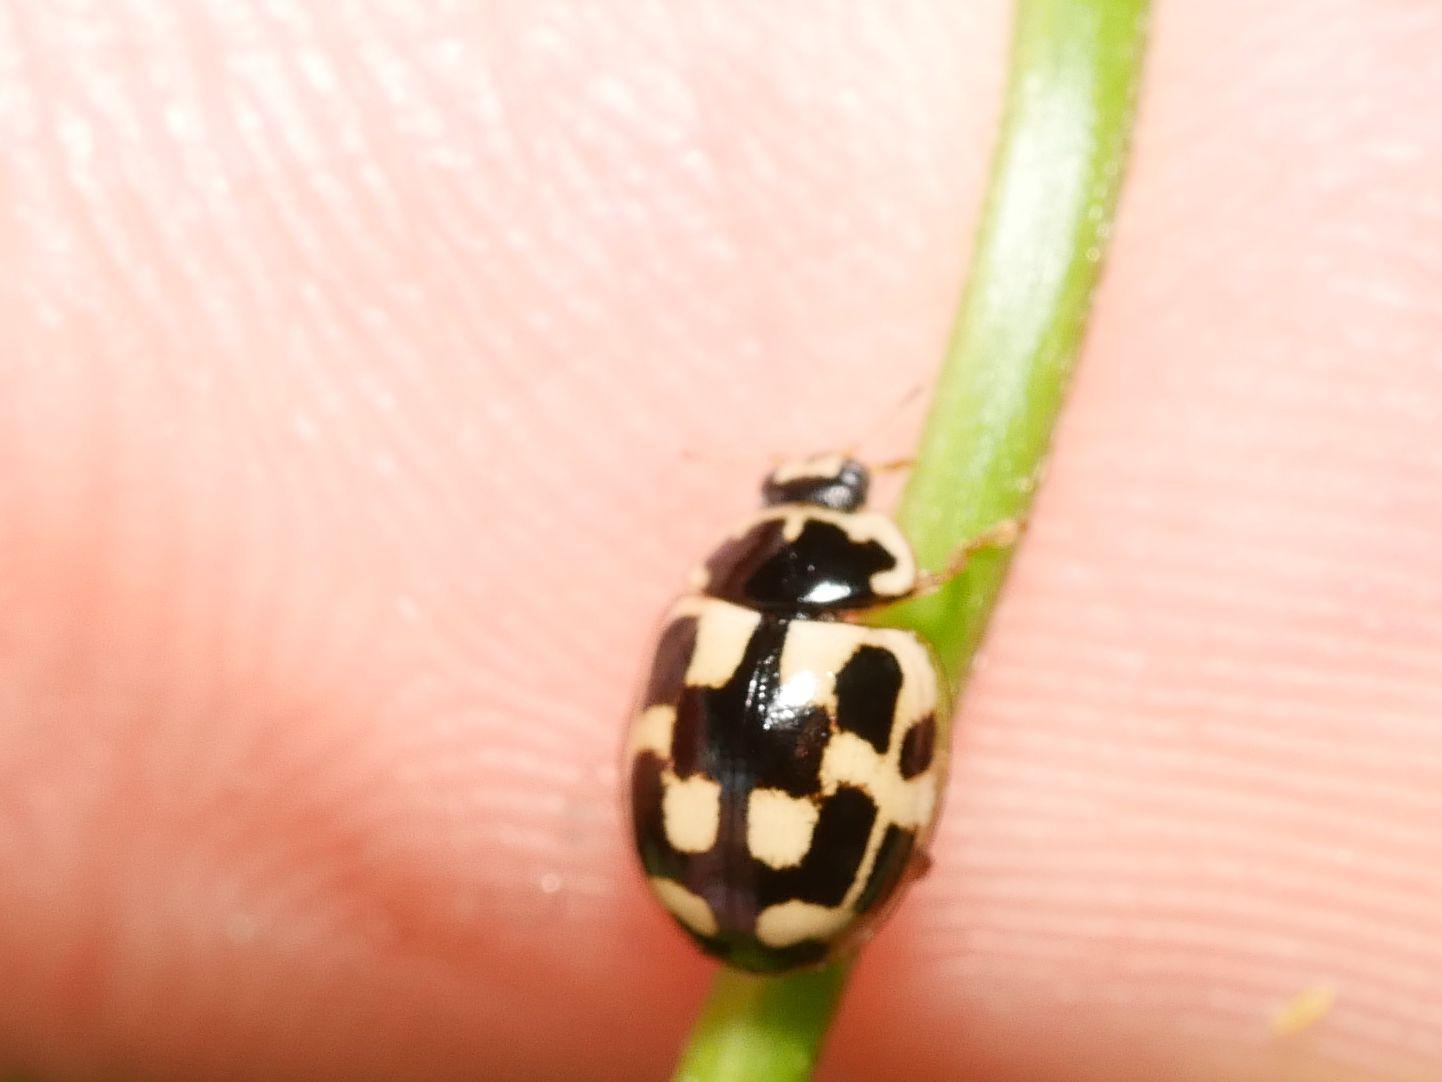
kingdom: Animalia
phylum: Arthropoda
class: Insecta
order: Coleoptera
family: Coccinellidae
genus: Propylaea
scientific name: Propylaea quatuordecimpunctata
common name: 14-spotted ladybird beetle
